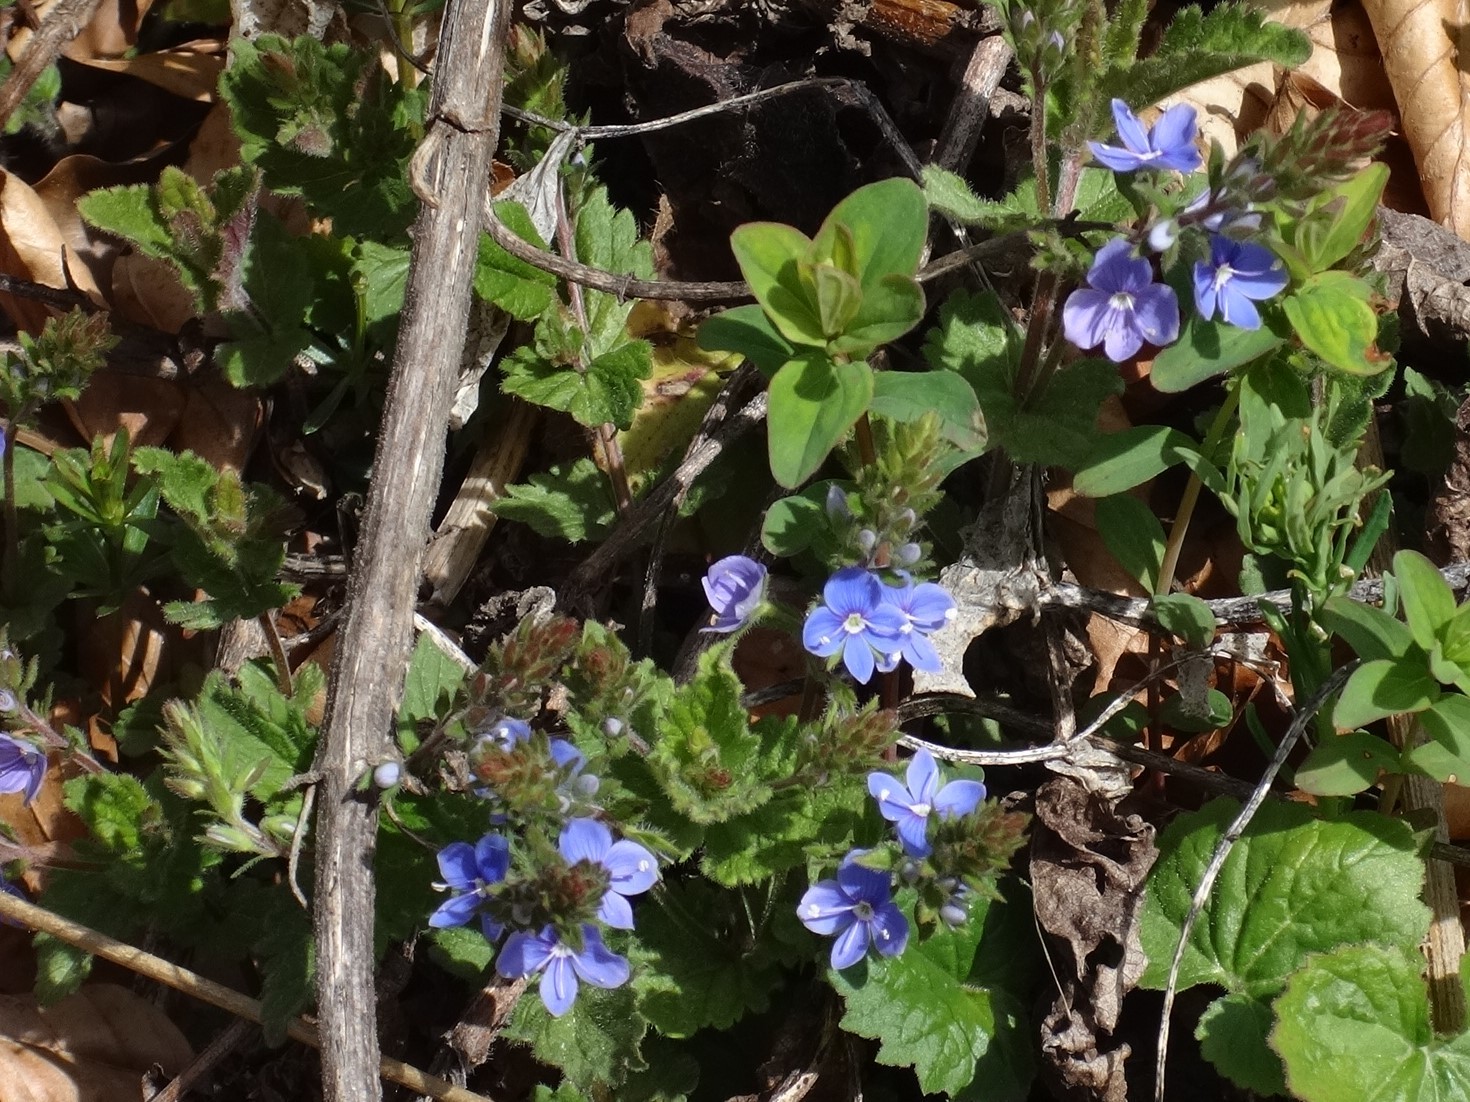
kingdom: Plantae
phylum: Tracheophyta
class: Magnoliopsida
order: Lamiales
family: Plantaginaceae
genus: Veronica
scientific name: Veronica chamaedrys
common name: Germander speedwell
